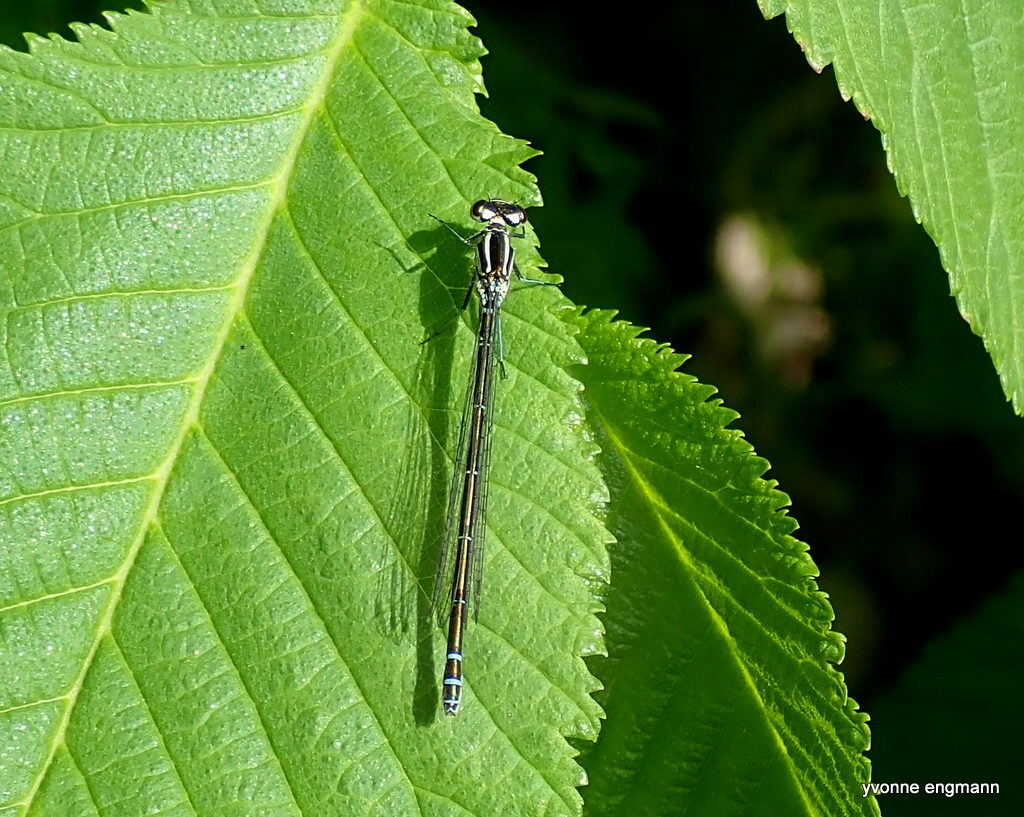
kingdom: Animalia
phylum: Arthropoda
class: Insecta
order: Odonata
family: Coenagrionidae
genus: Coenagrion
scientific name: Coenagrion puella
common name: Azure damselfly
